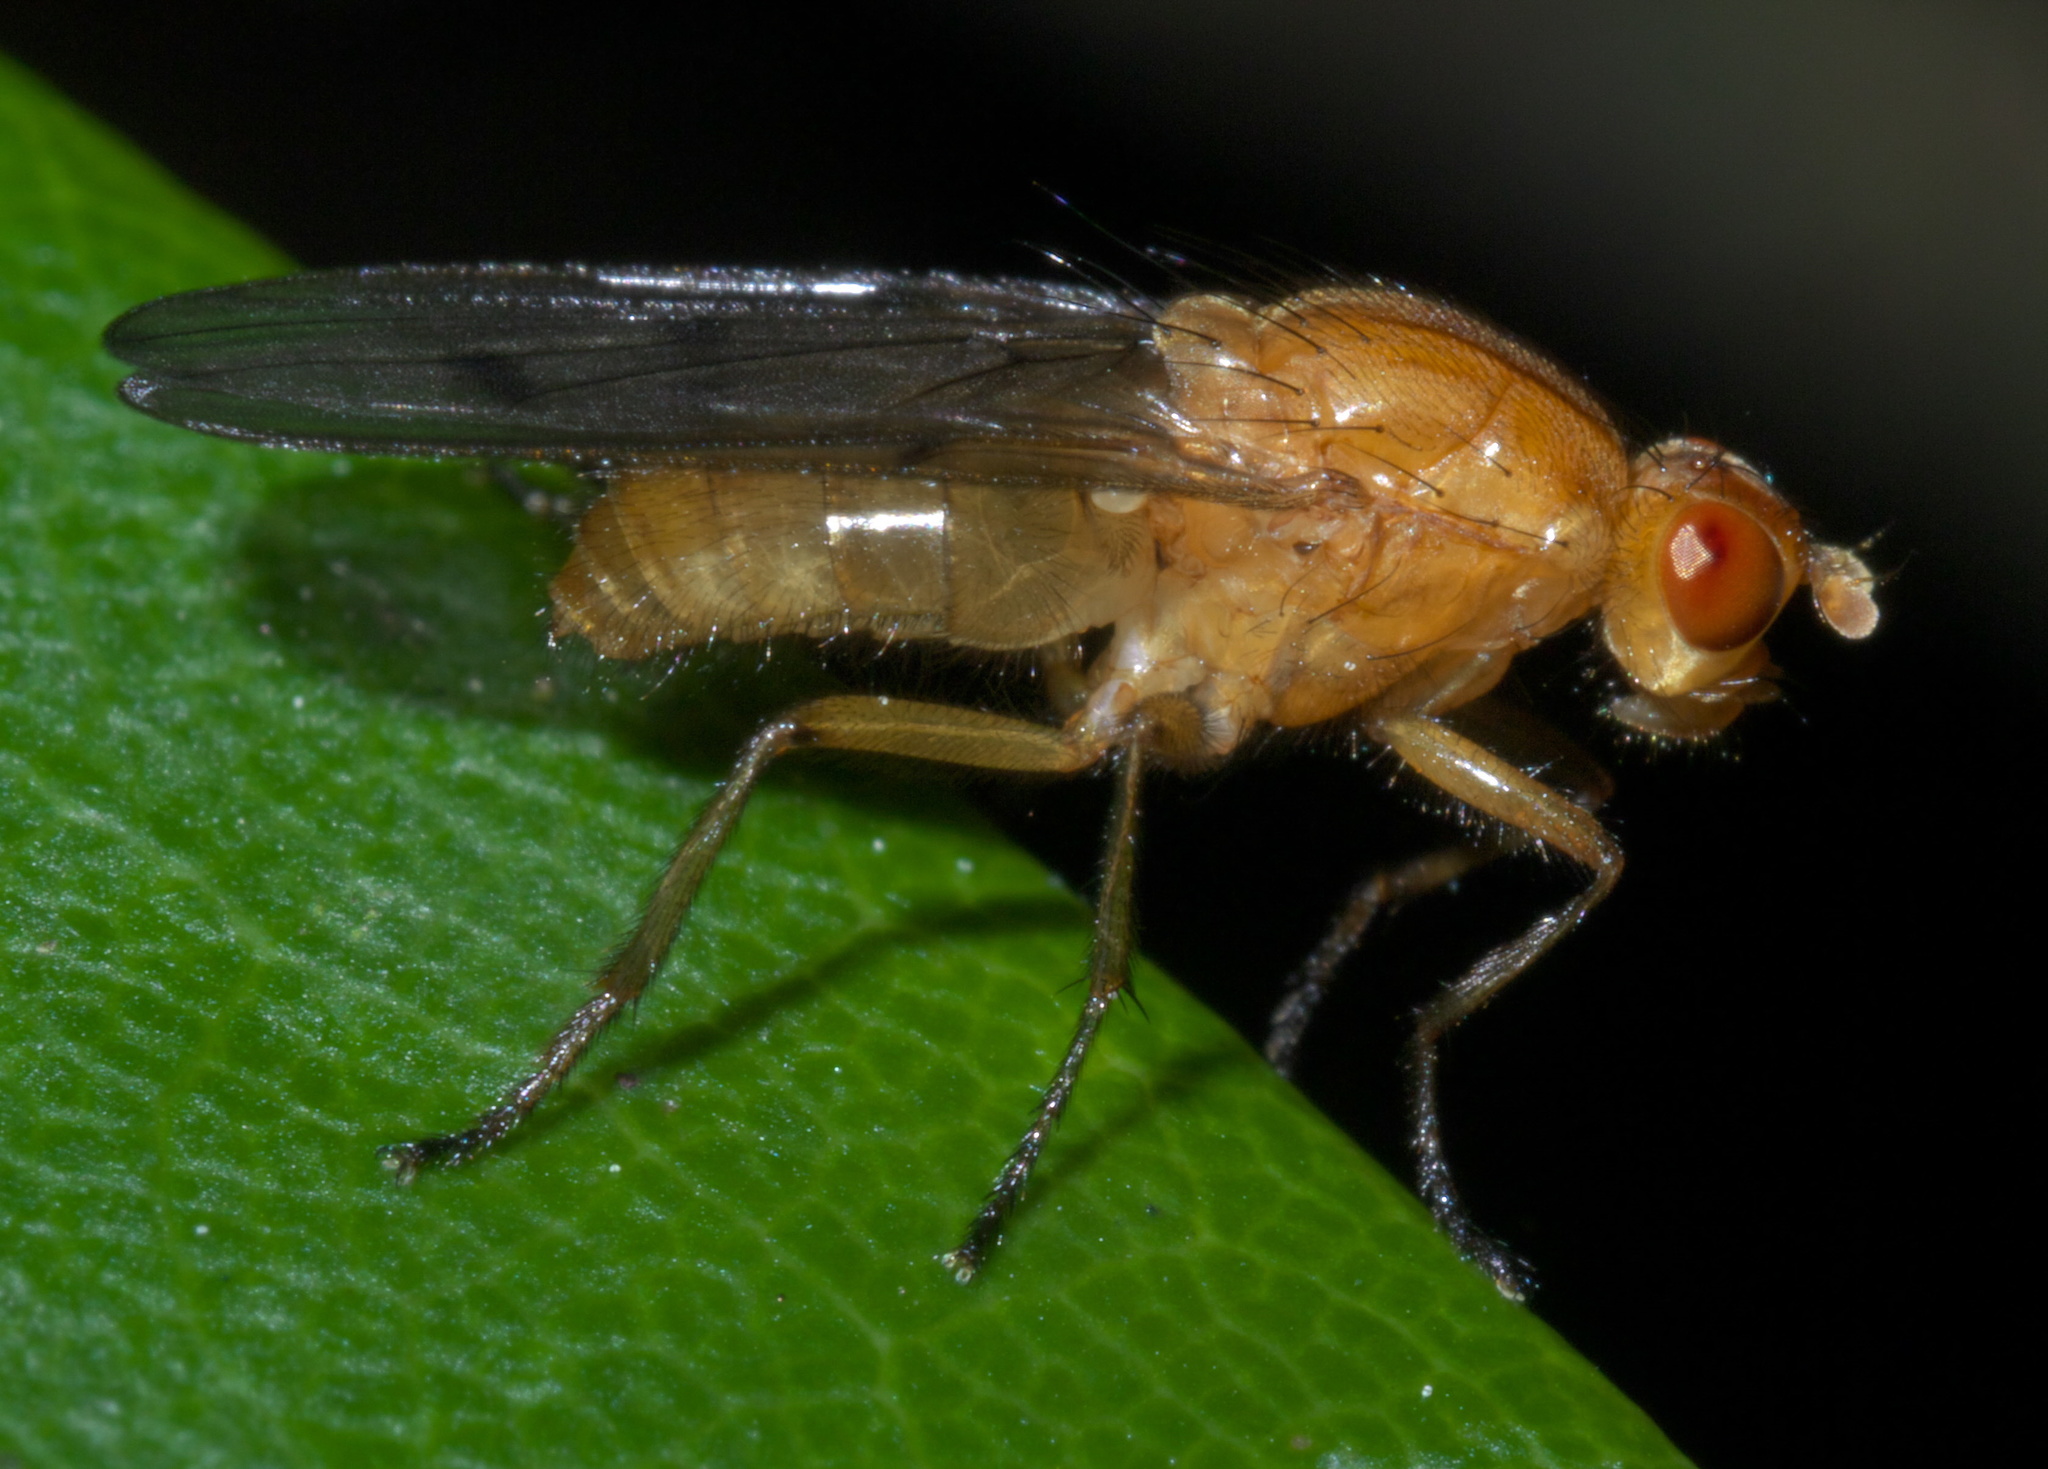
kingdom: Animalia
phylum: Arthropoda
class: Insecta
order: Diptera
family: Dryomyzidae
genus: Dryomyza
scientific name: Dryomyza anilis
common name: Marsh fly
